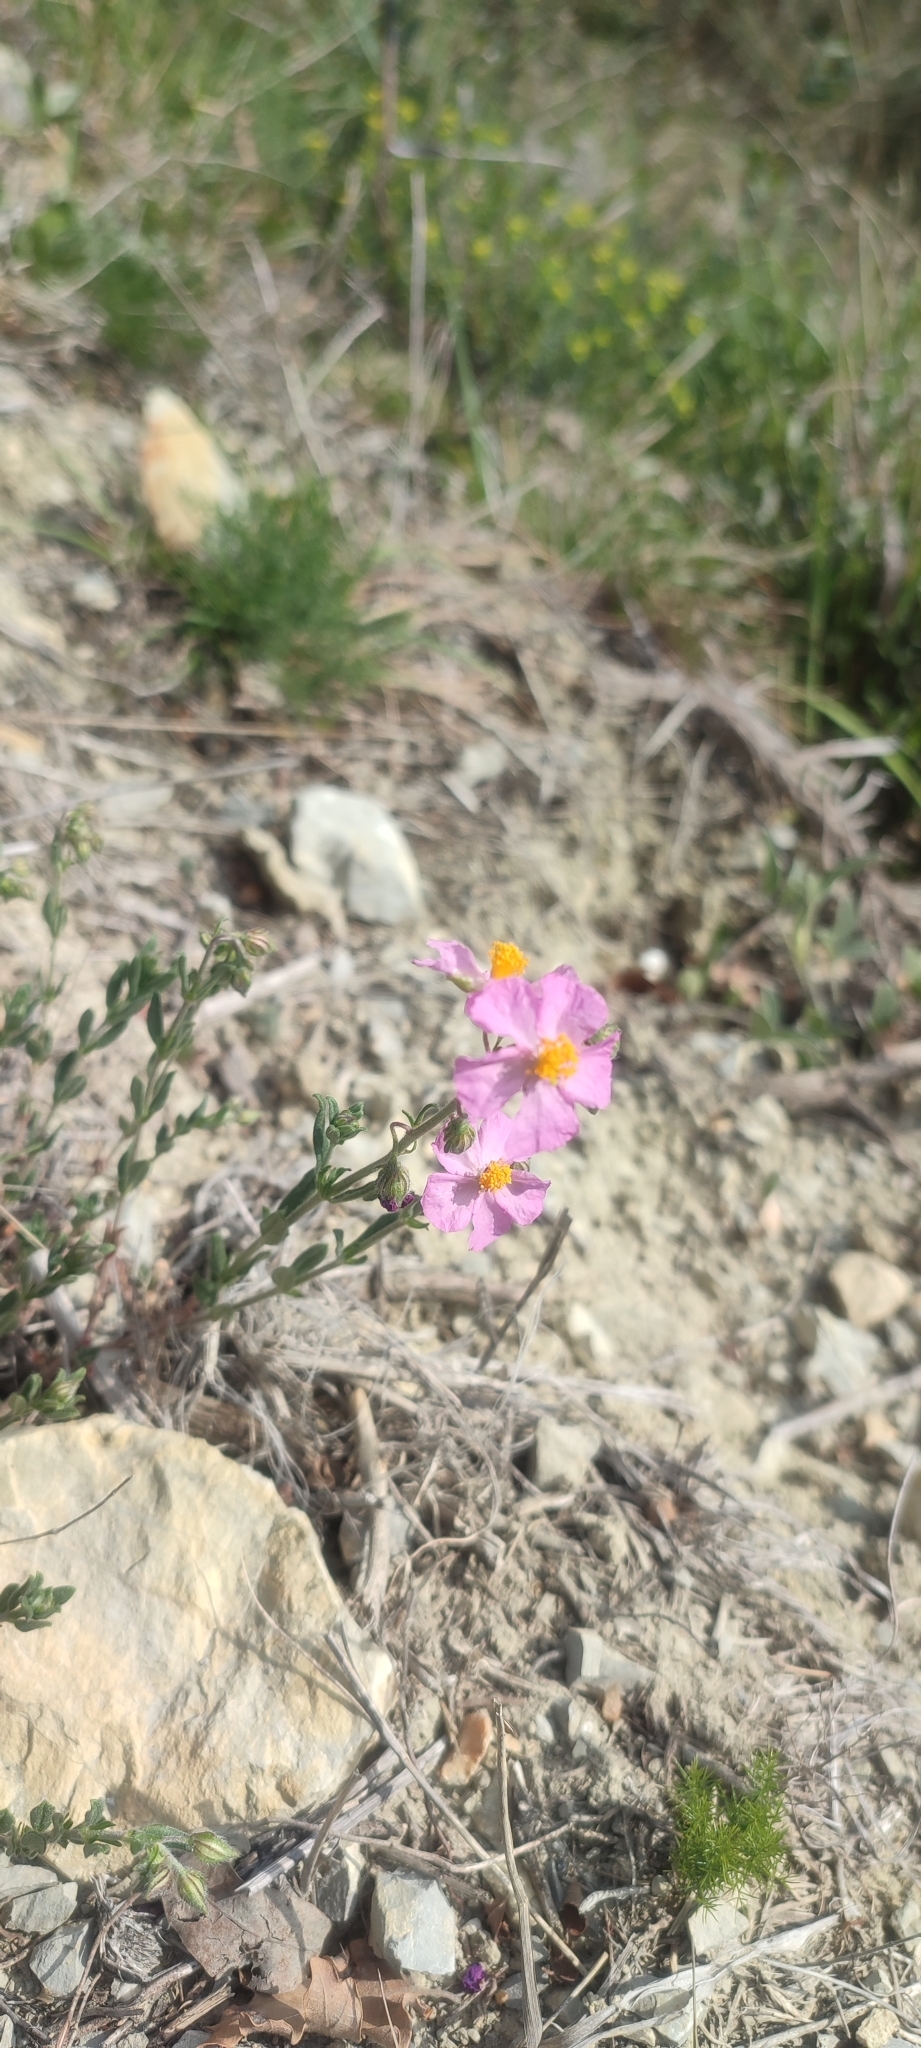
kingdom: Plantae
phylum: Tracheophyta
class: Magnoliopsida
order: Malvales
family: Cistaceae
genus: Helianthemum
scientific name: Helianthemum apenninum
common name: White rock-rose
